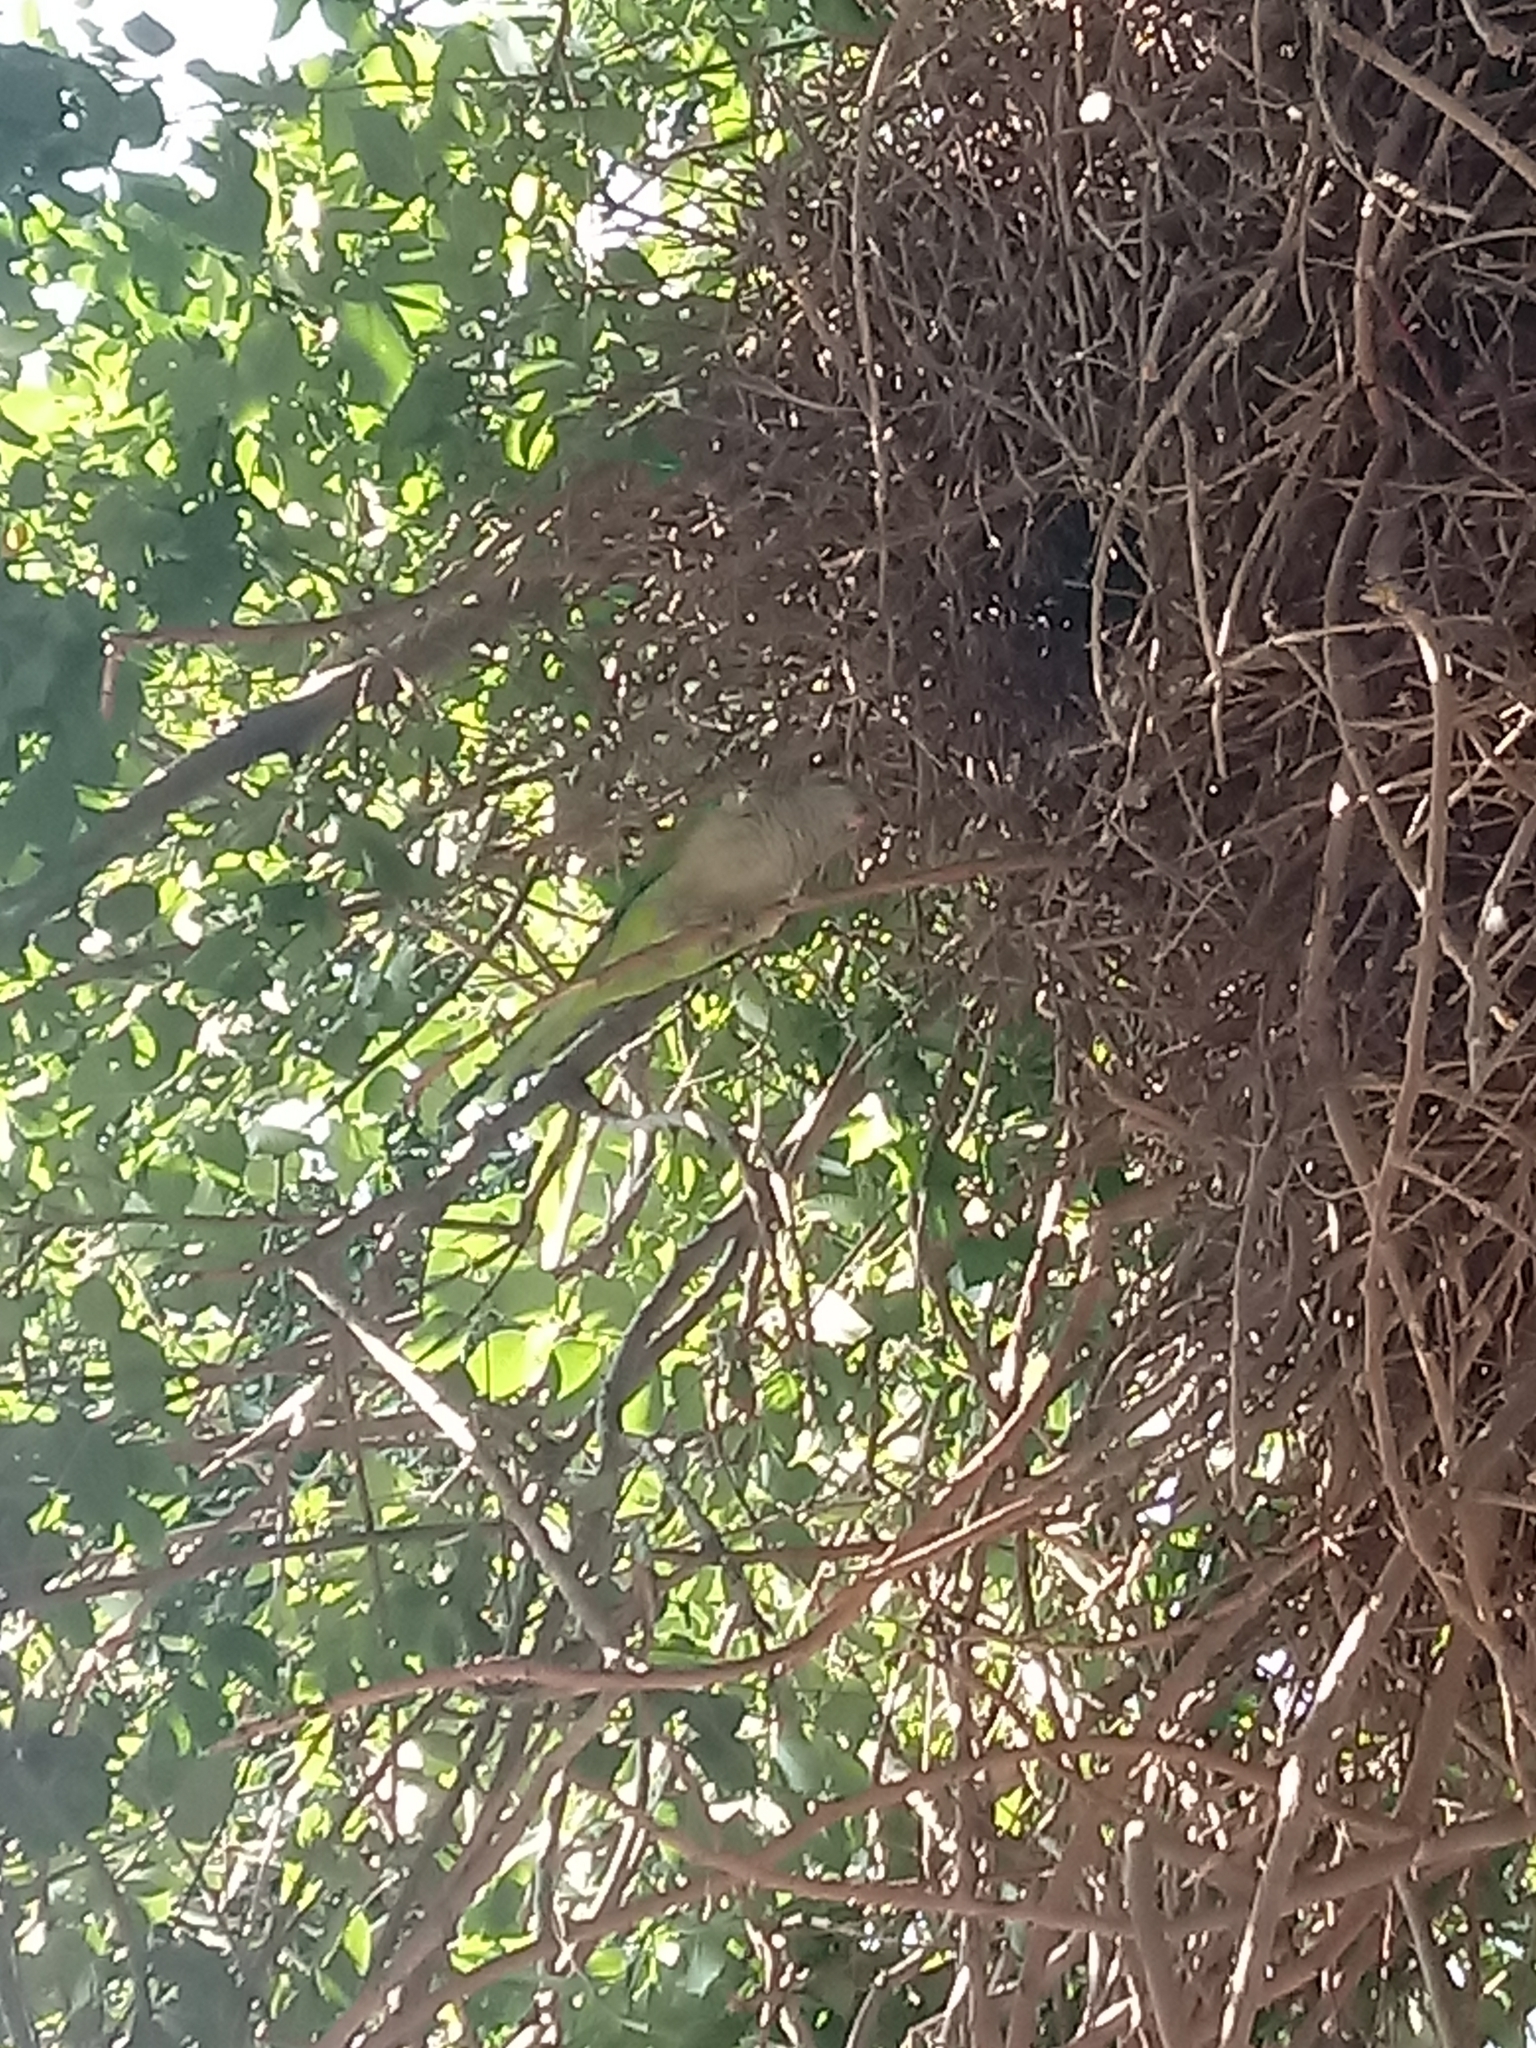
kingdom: Animalia
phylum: Chordata
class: Aves
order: Psittaciformes
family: Psittacidae
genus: Myiopsitta
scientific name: Myiopsitta monachus
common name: Monk parakeet
